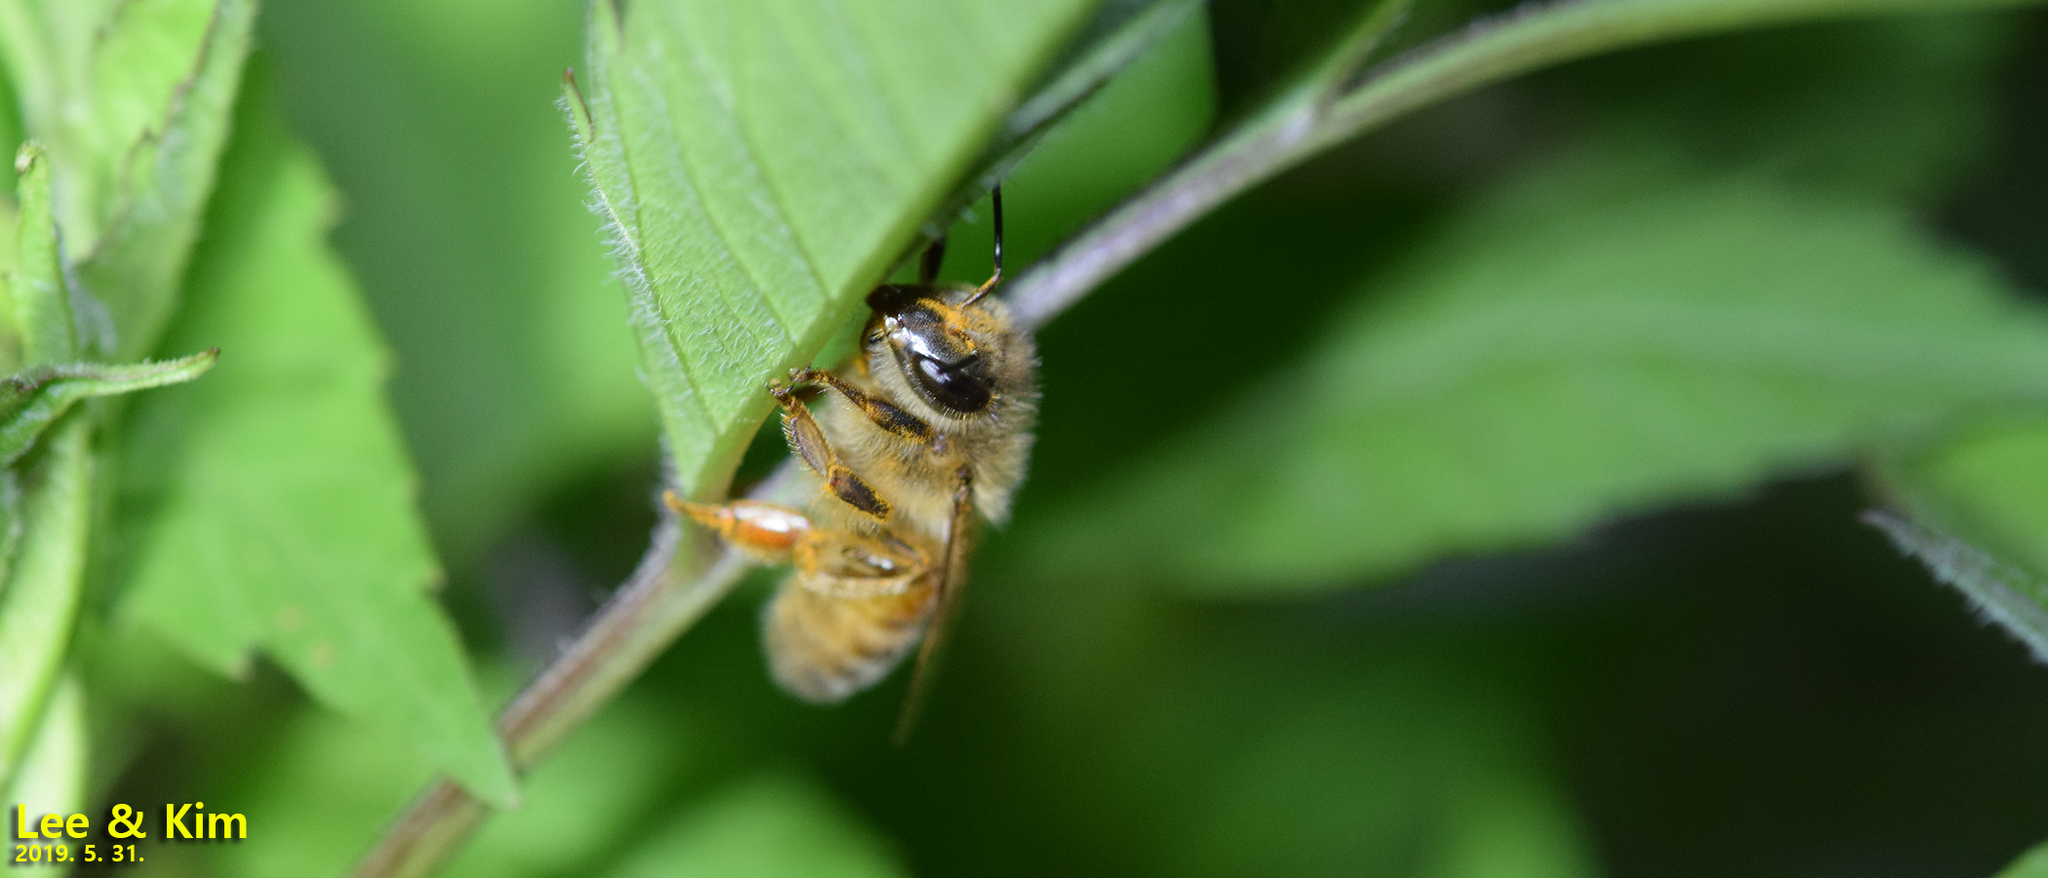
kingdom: Animalia
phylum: Arthropoda
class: Insecta
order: Hymenoptera
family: Apidae
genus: Apis
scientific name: Apis mellifera
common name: Honey bee
